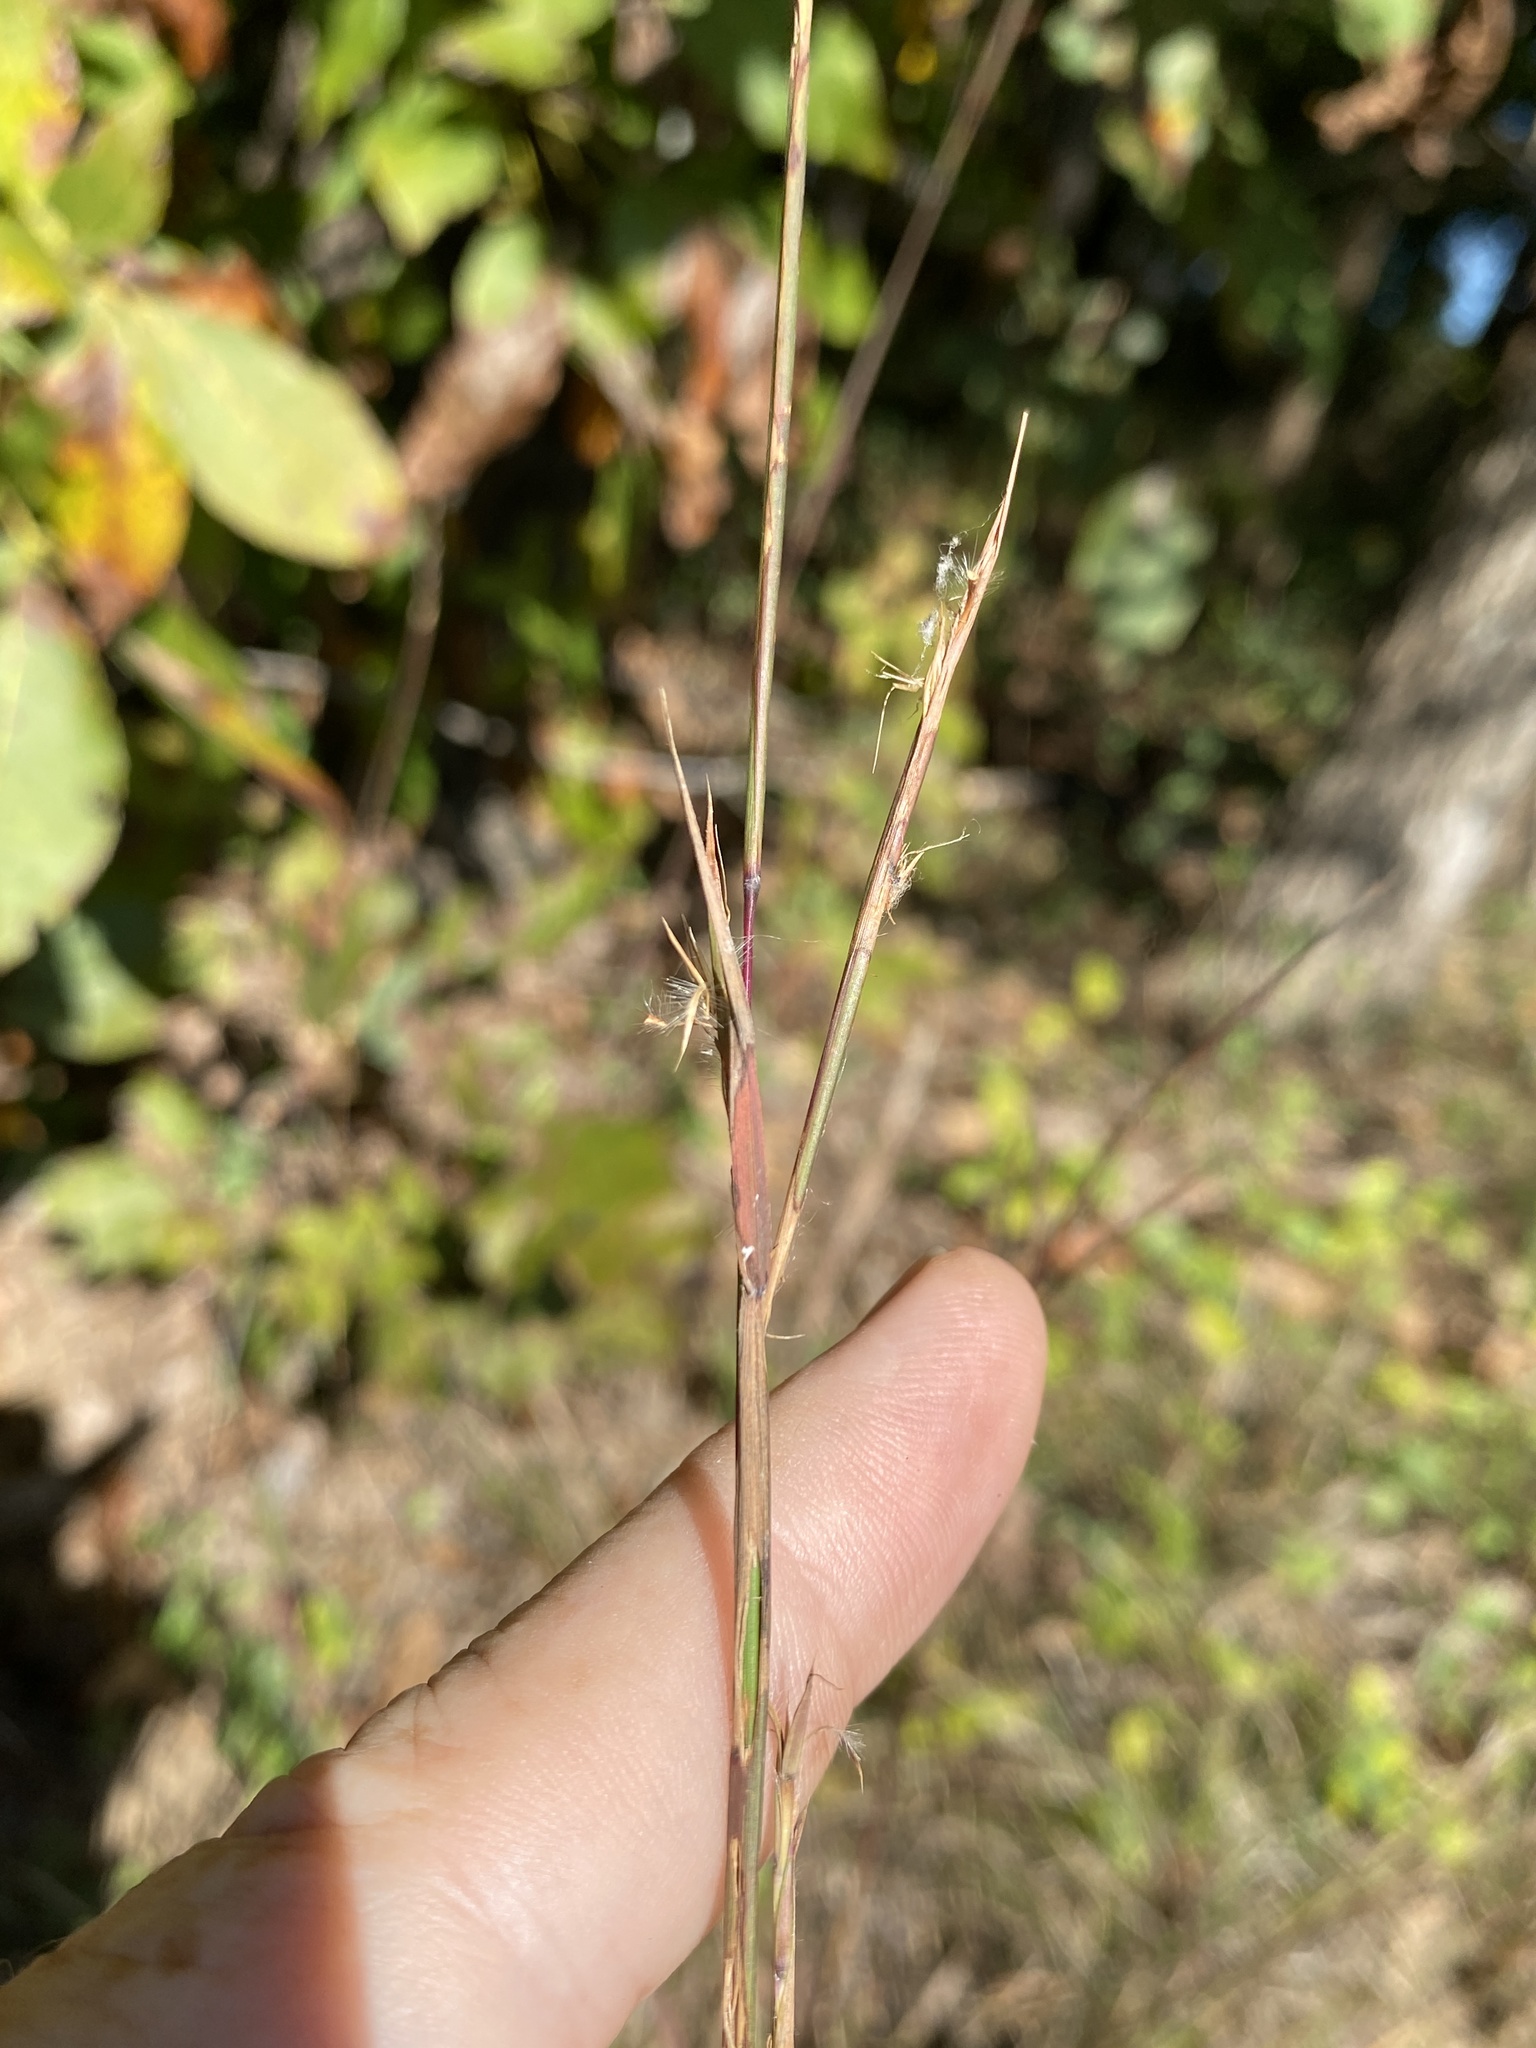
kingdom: Plantae
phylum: Tracheophyta
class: Liliopsida
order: Poales
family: Poaceae
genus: Schizachyrium
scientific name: Schizachyrium scoparium
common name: Little bluestem
